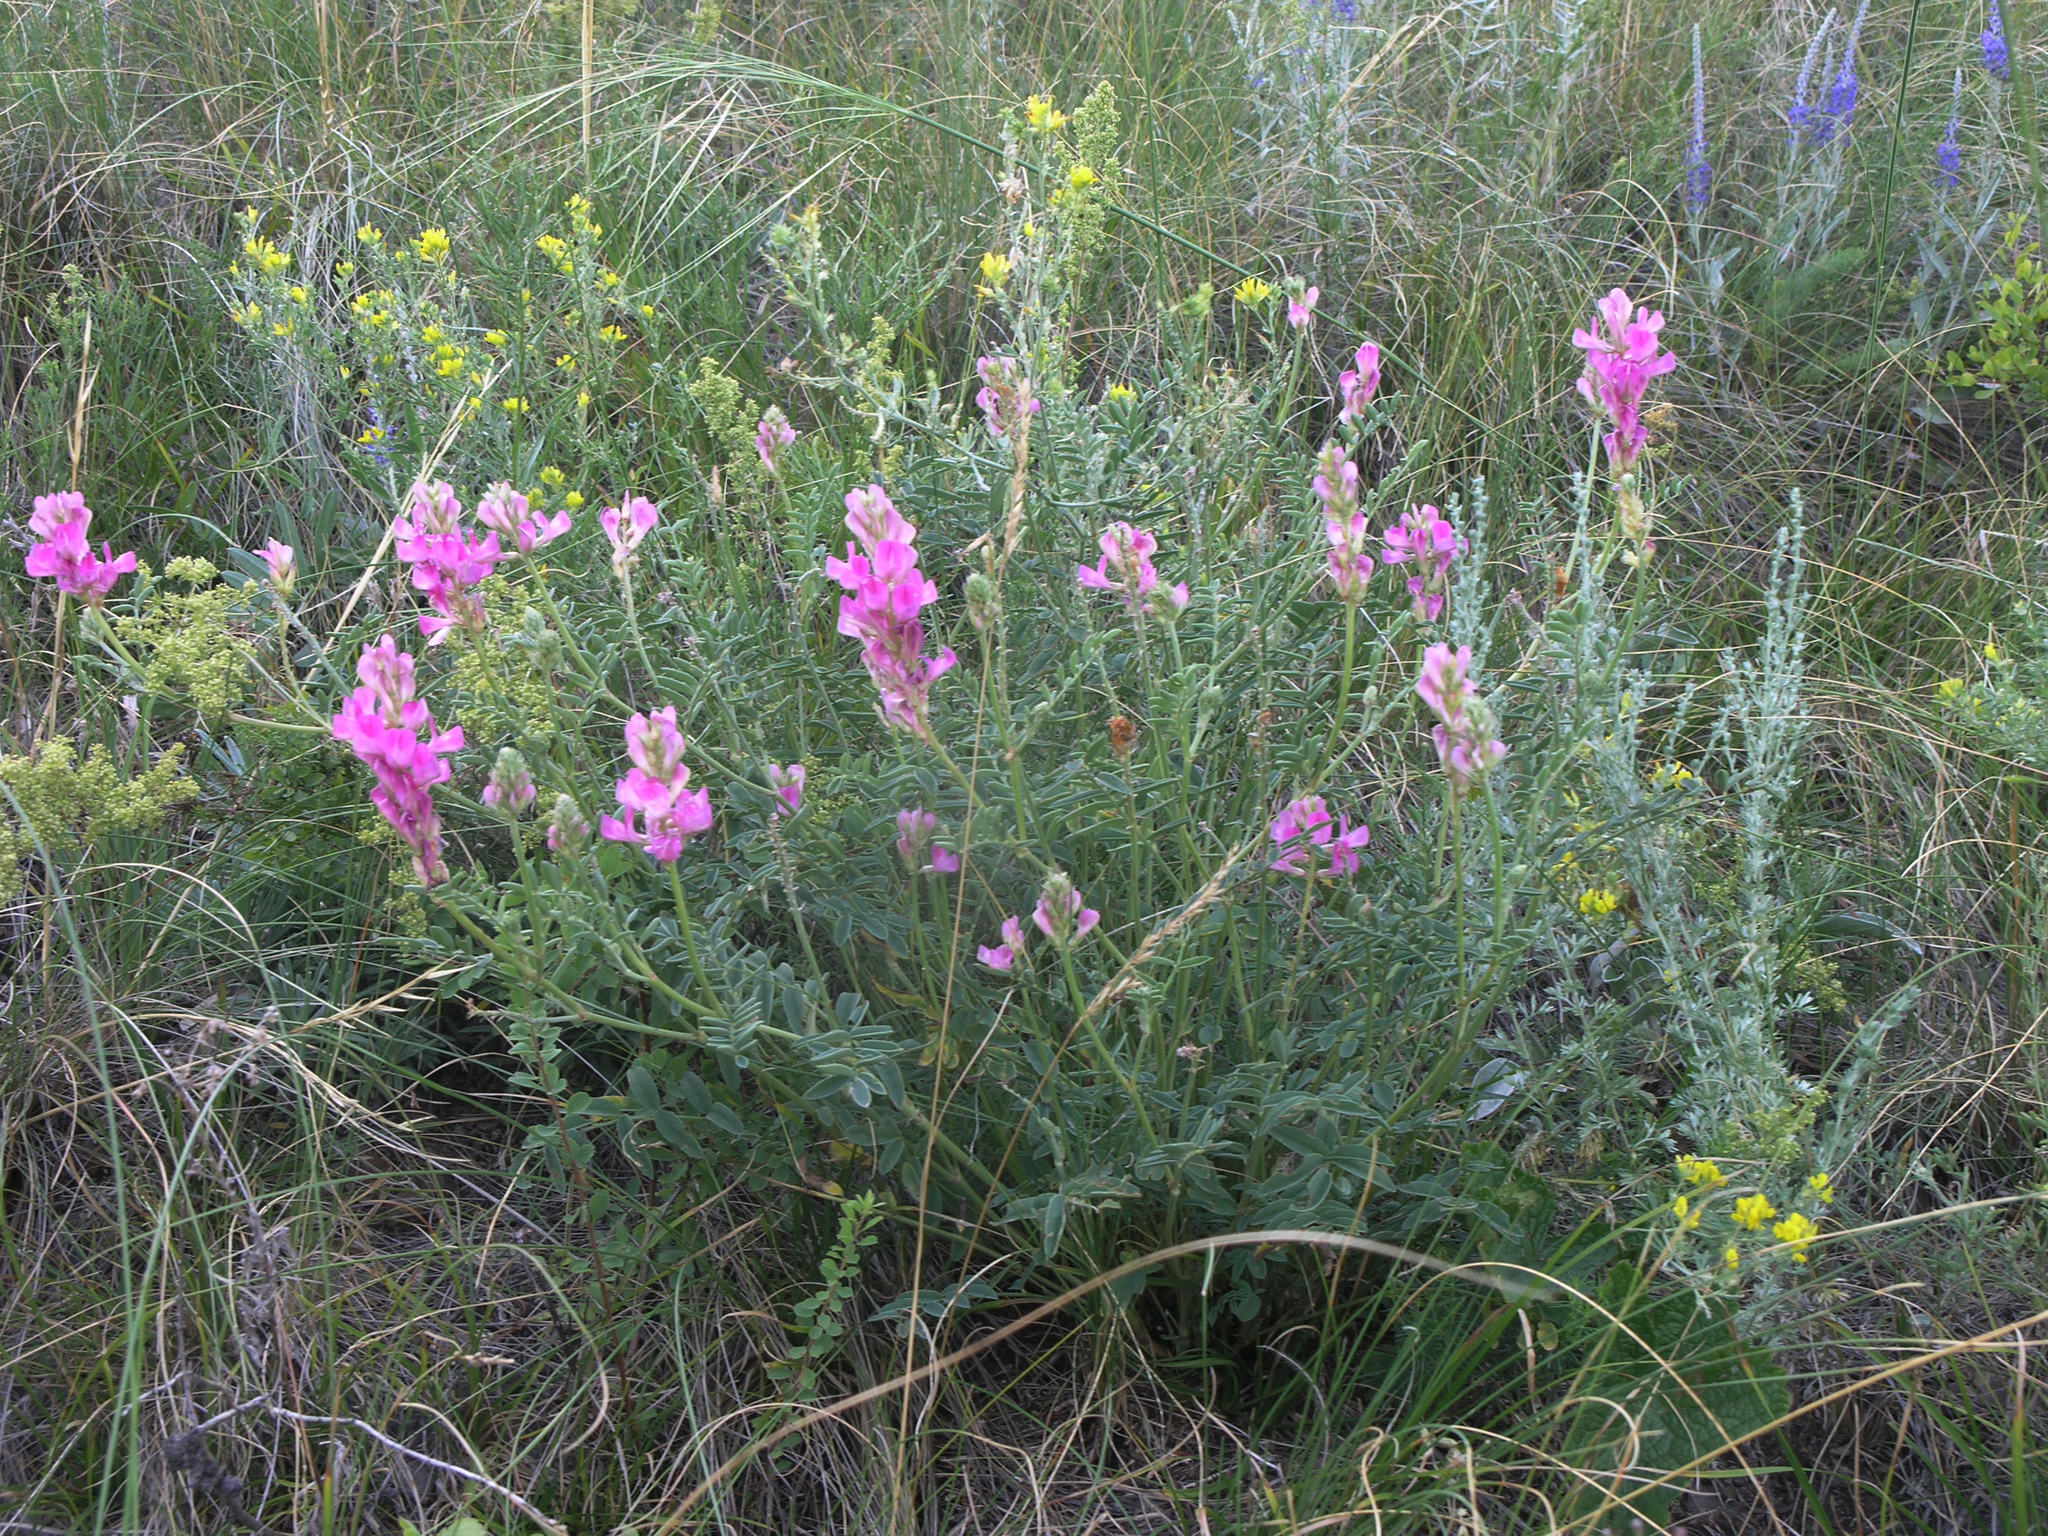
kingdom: Plantae
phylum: Tracheophyta
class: Magnoliopsida
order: Fabales
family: Fabaceae
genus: Hedysarum
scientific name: Hedysarum gmelinii
